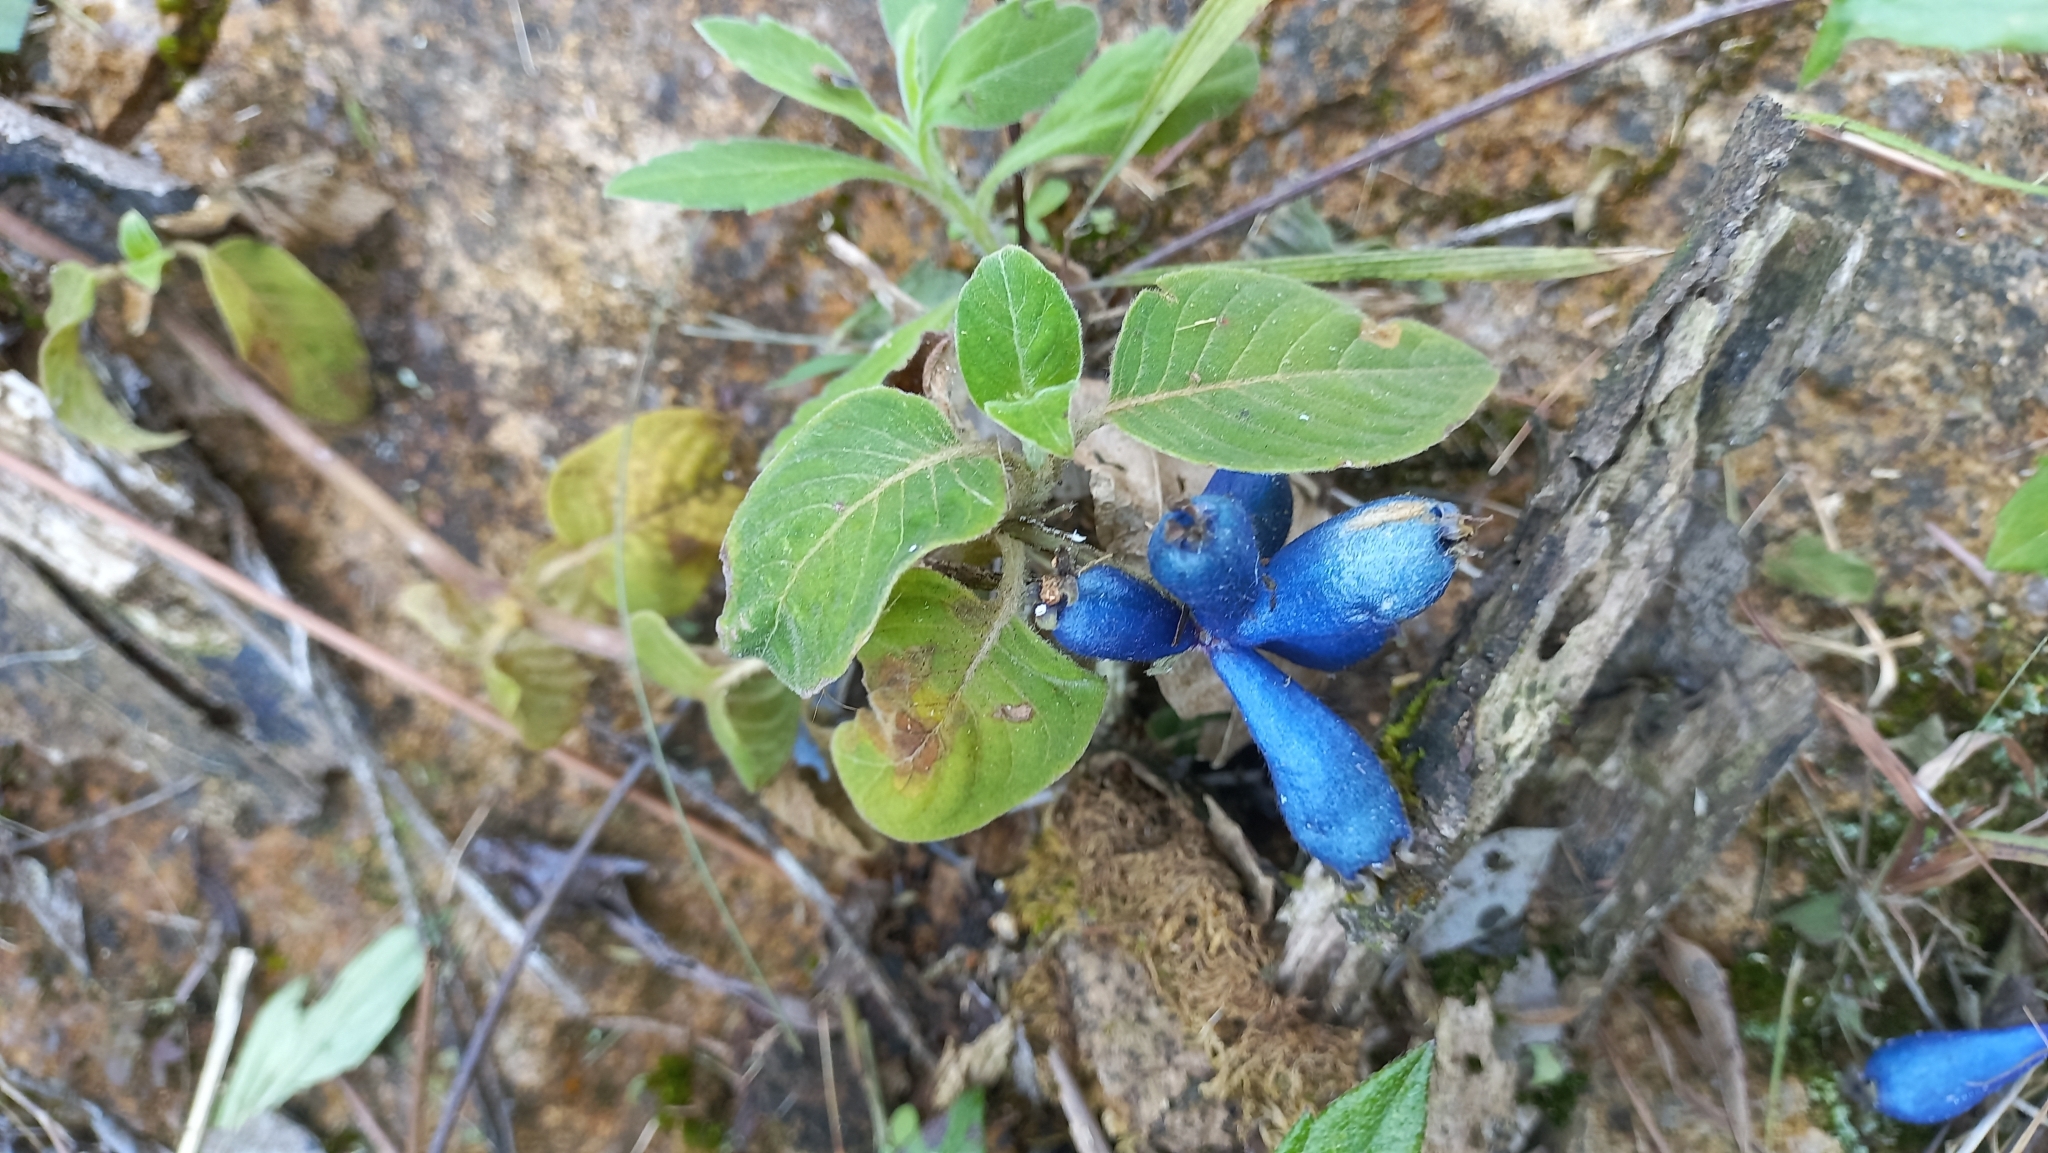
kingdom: Plantae
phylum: Tracheophyta
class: Magnoliopsida
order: Gentianales
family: Rubiaceae
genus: Coccocypselum
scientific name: Coccocypselum lanceolatum
